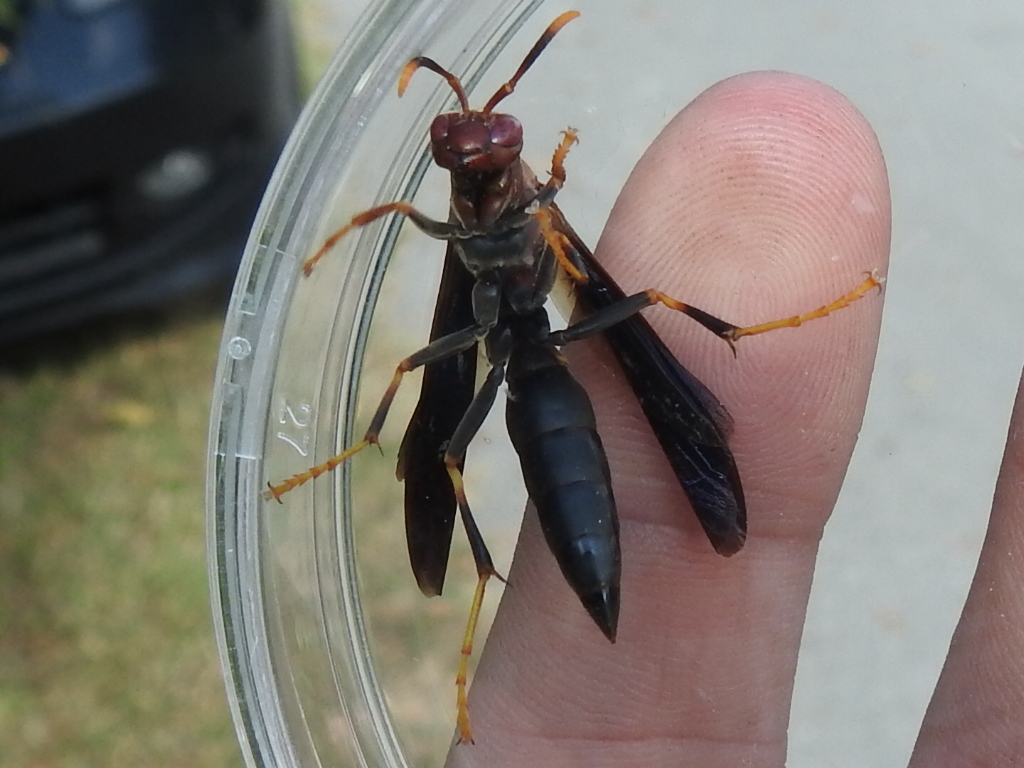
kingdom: Animalia
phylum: Arthropoda
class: Insecta
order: Hymenoptera
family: Eumenidae
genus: Polistes
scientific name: Polistes annularis
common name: Ringed paper wasp
